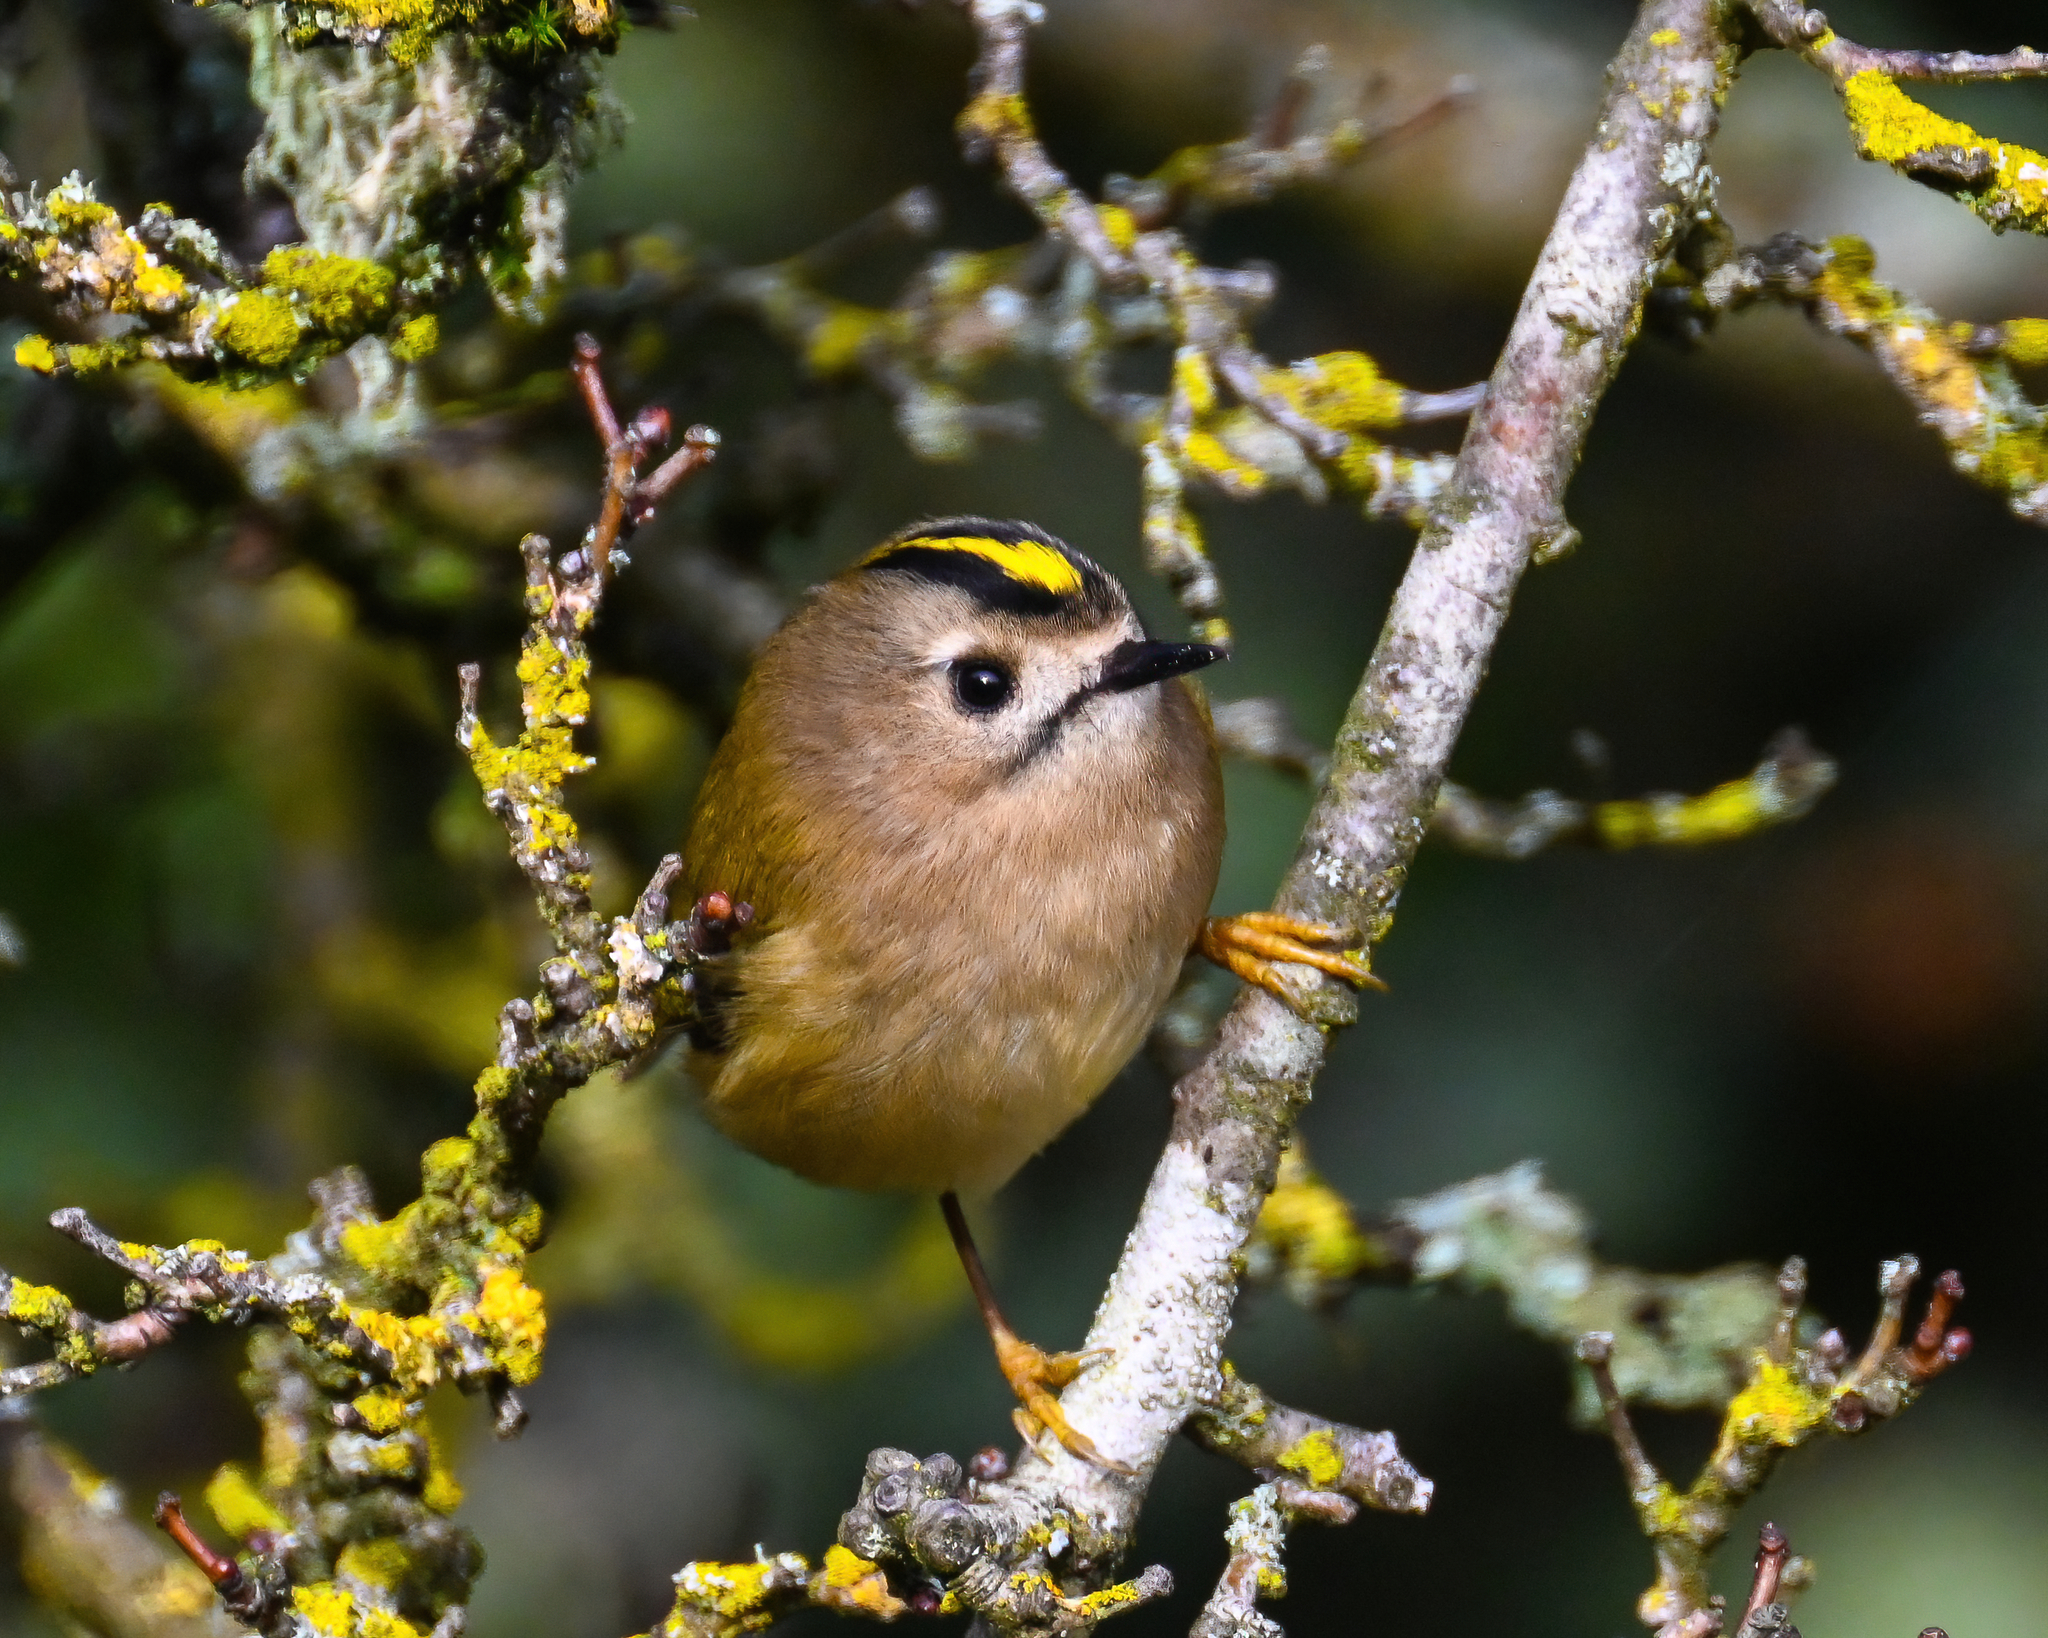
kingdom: Animalia
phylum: Chordata
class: Aves
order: Passeriformes
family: Regulidae
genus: Regulus
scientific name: Regulus regulus
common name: Goldcrest
